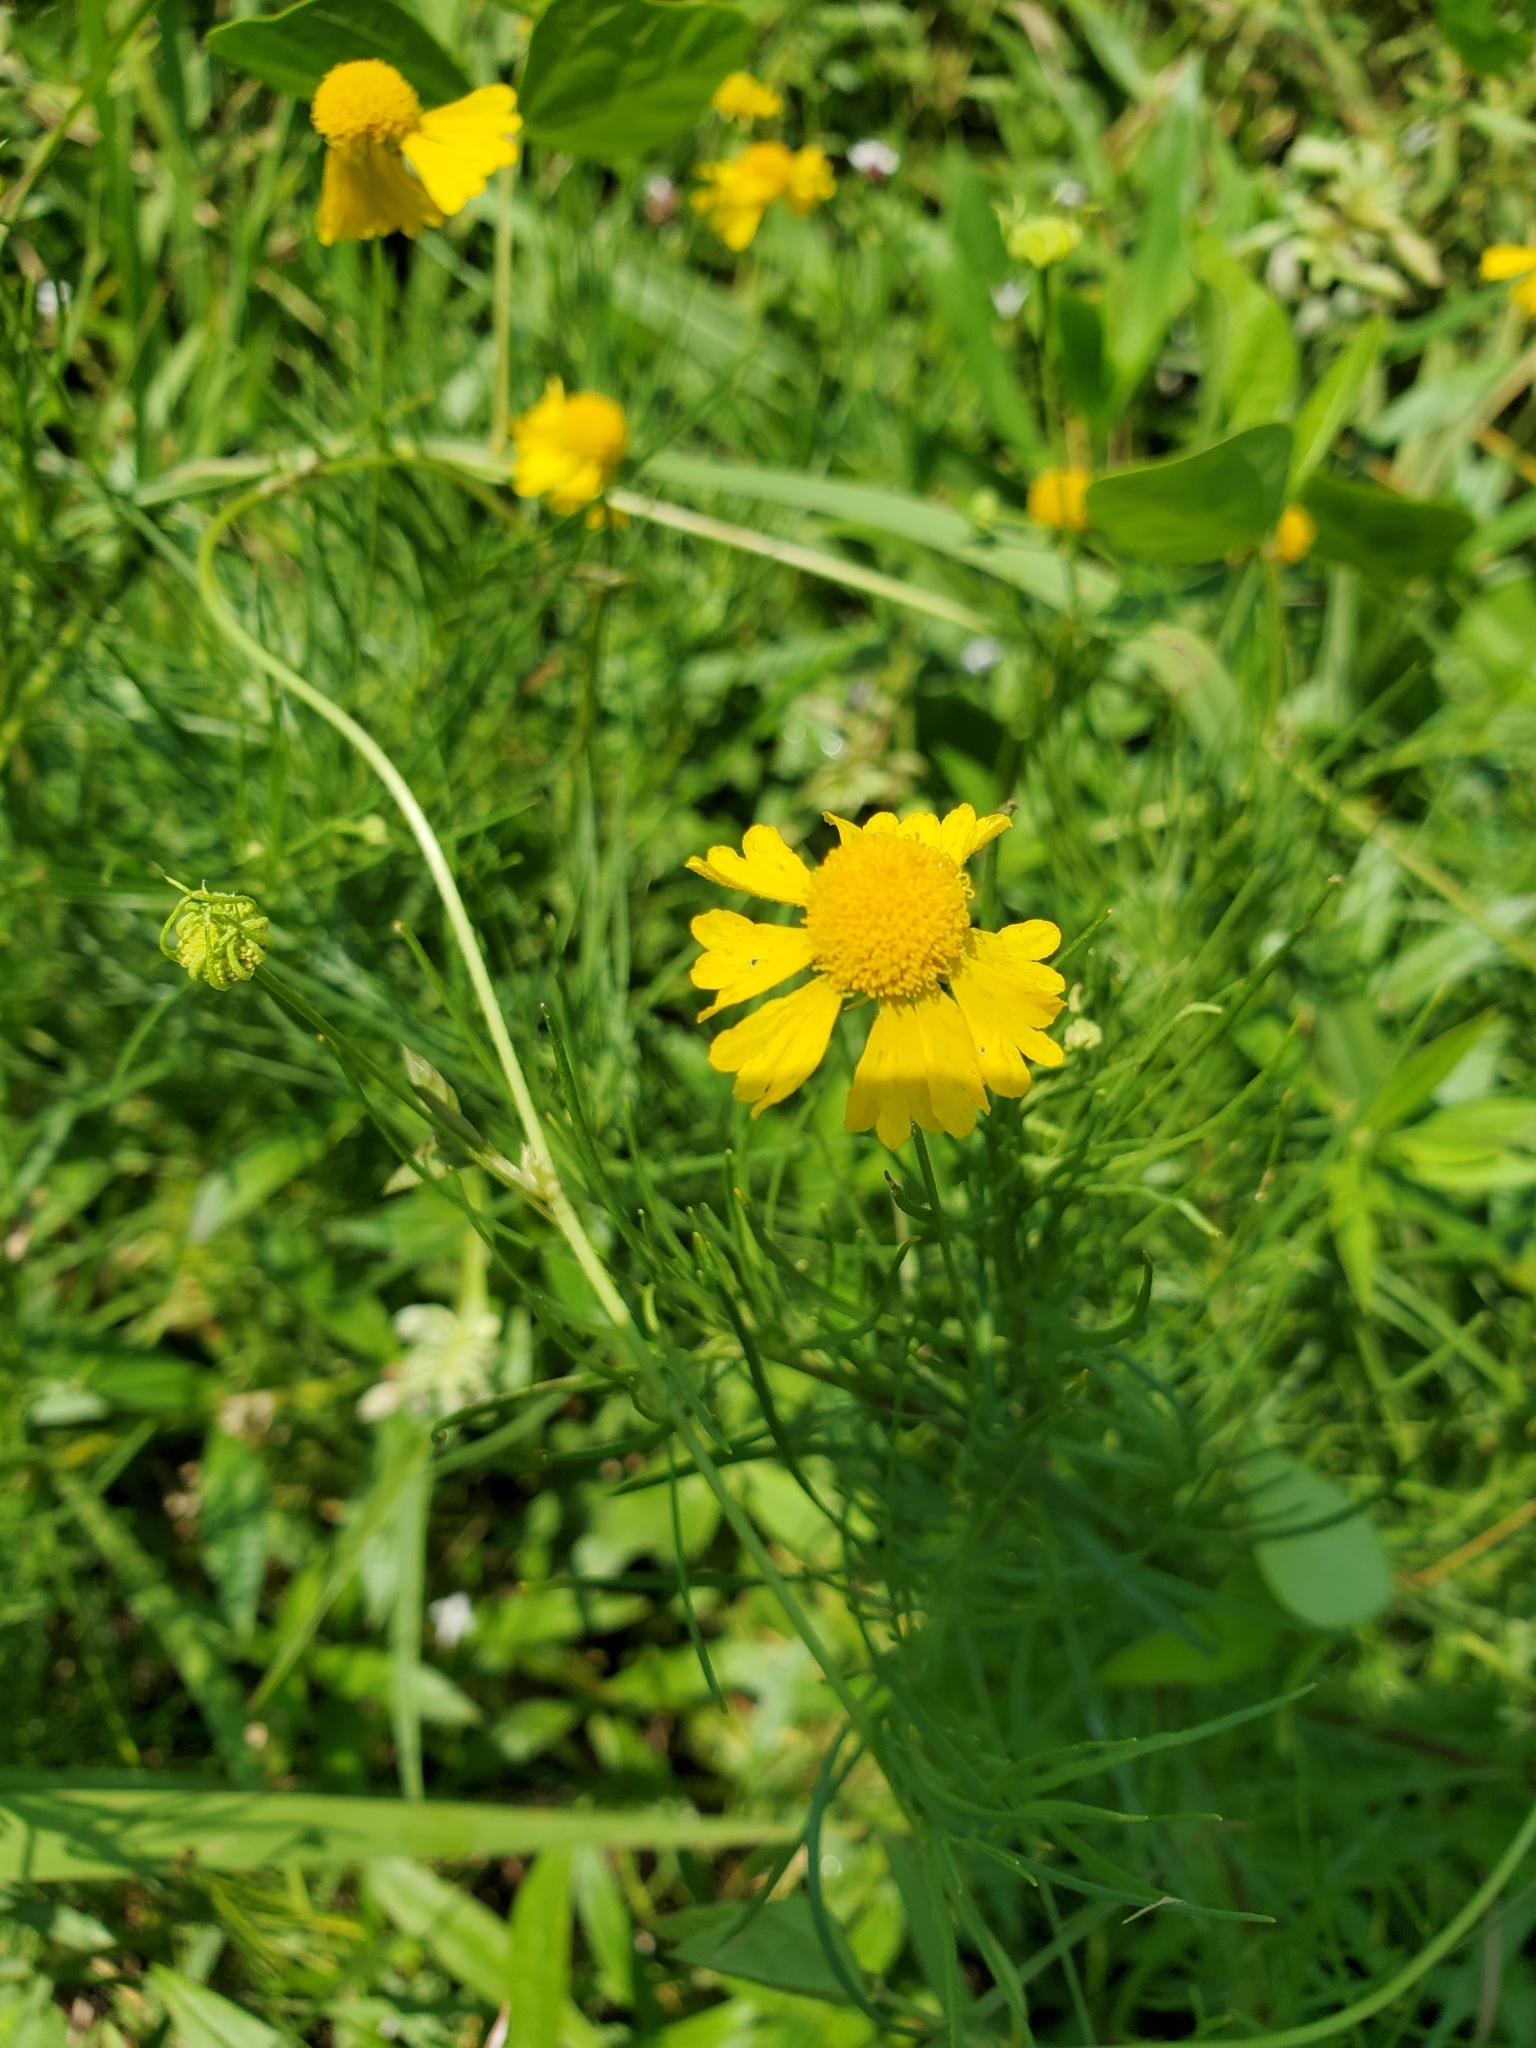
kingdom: Plantae
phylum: Tracheophyta
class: Magnoliopsida
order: Asterales
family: Asteraceae
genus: Helenium
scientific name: Helenium amarum
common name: Bitter sneezeweed
